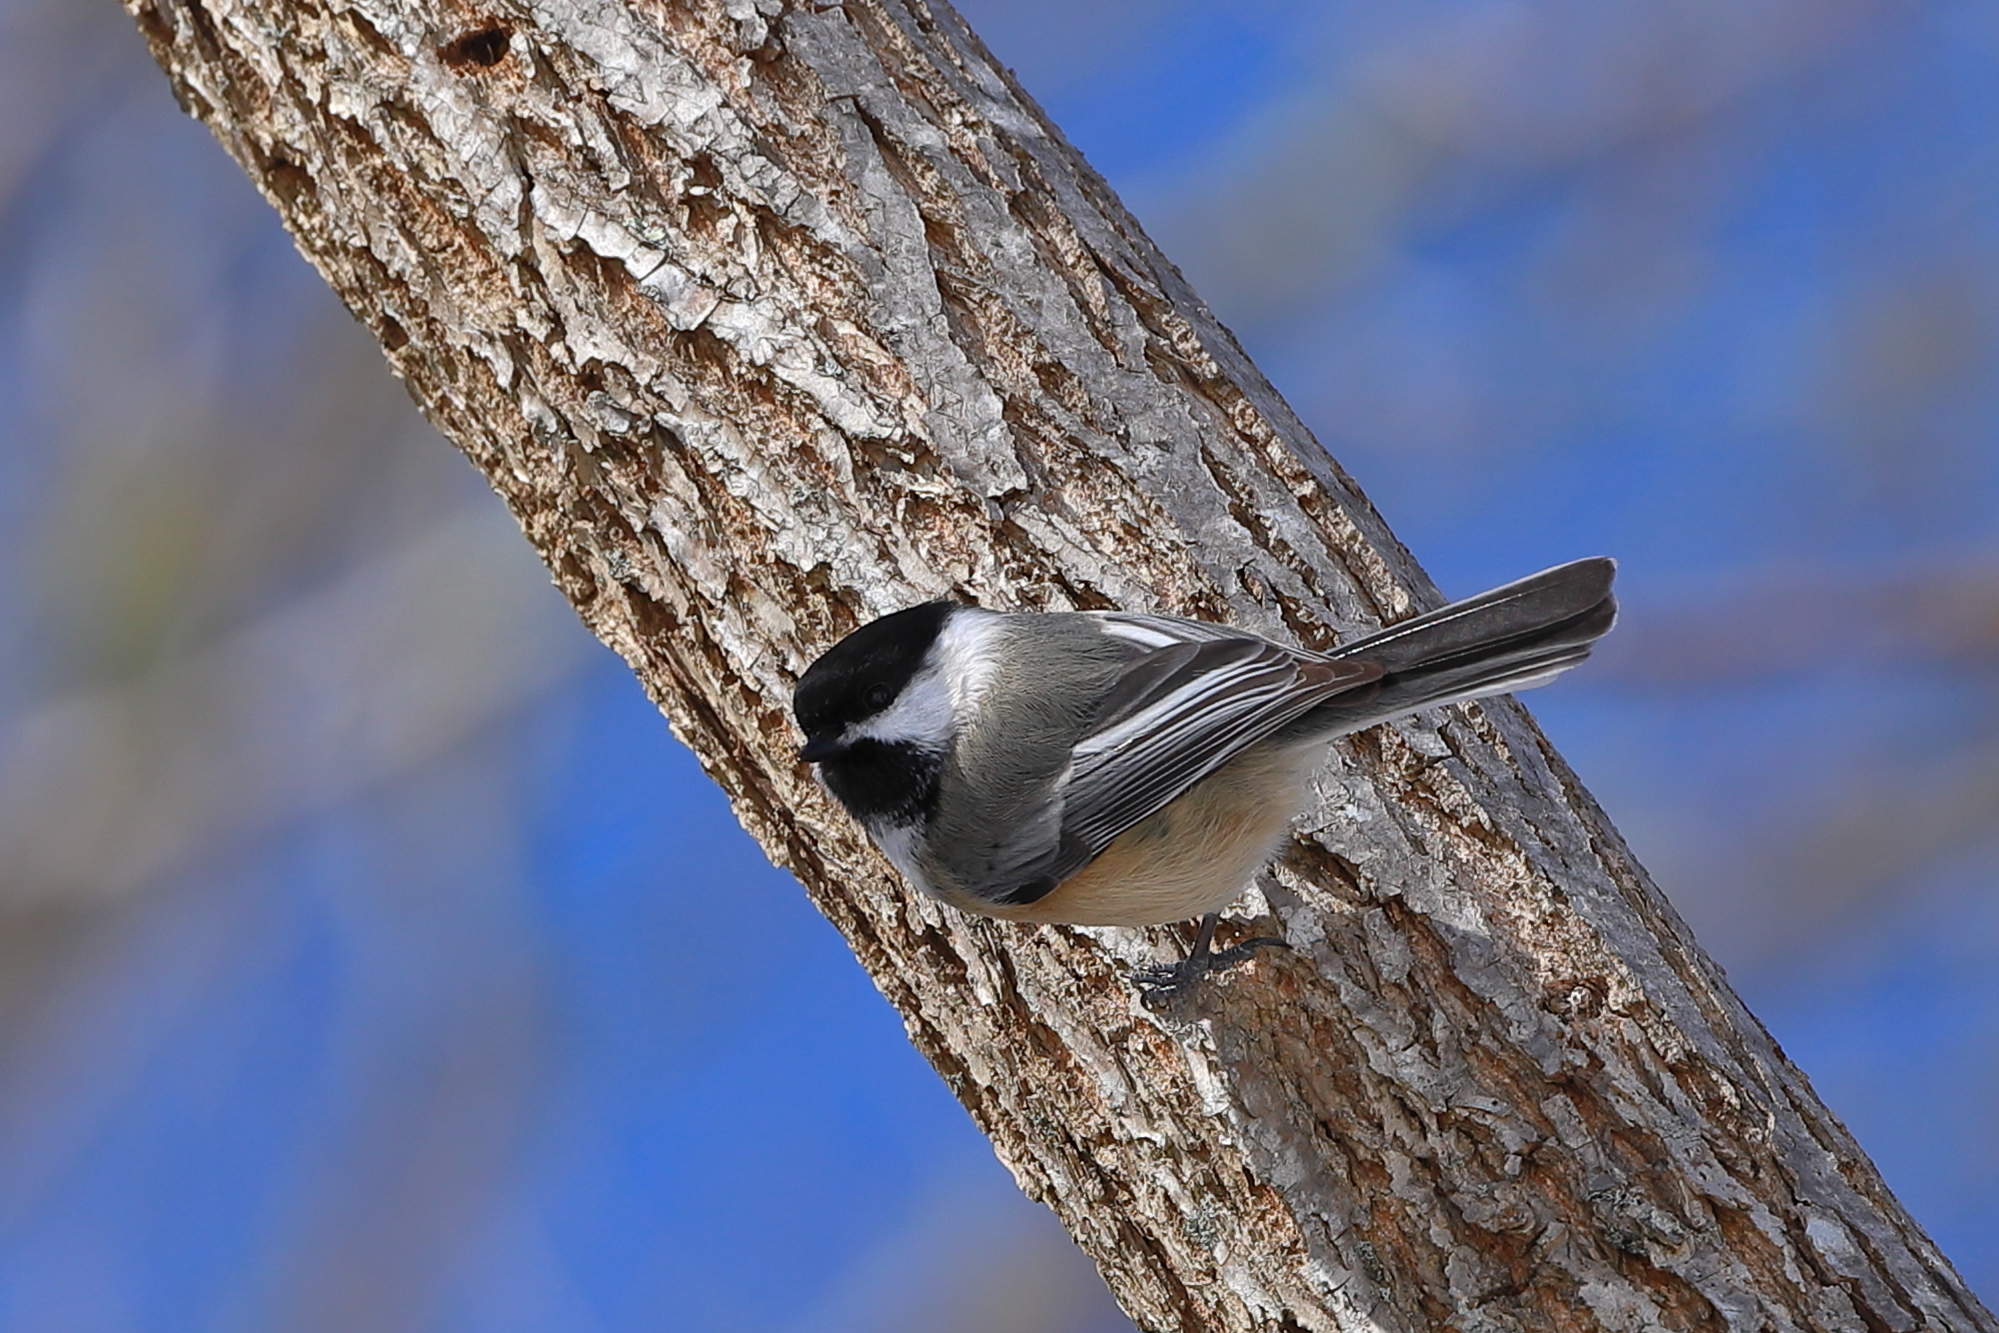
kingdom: Animalia
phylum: Chordata
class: Aves
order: Passeriformes
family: Paridae
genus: Poecile
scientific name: Poecile atricapillus
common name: Black-capped chickadee
